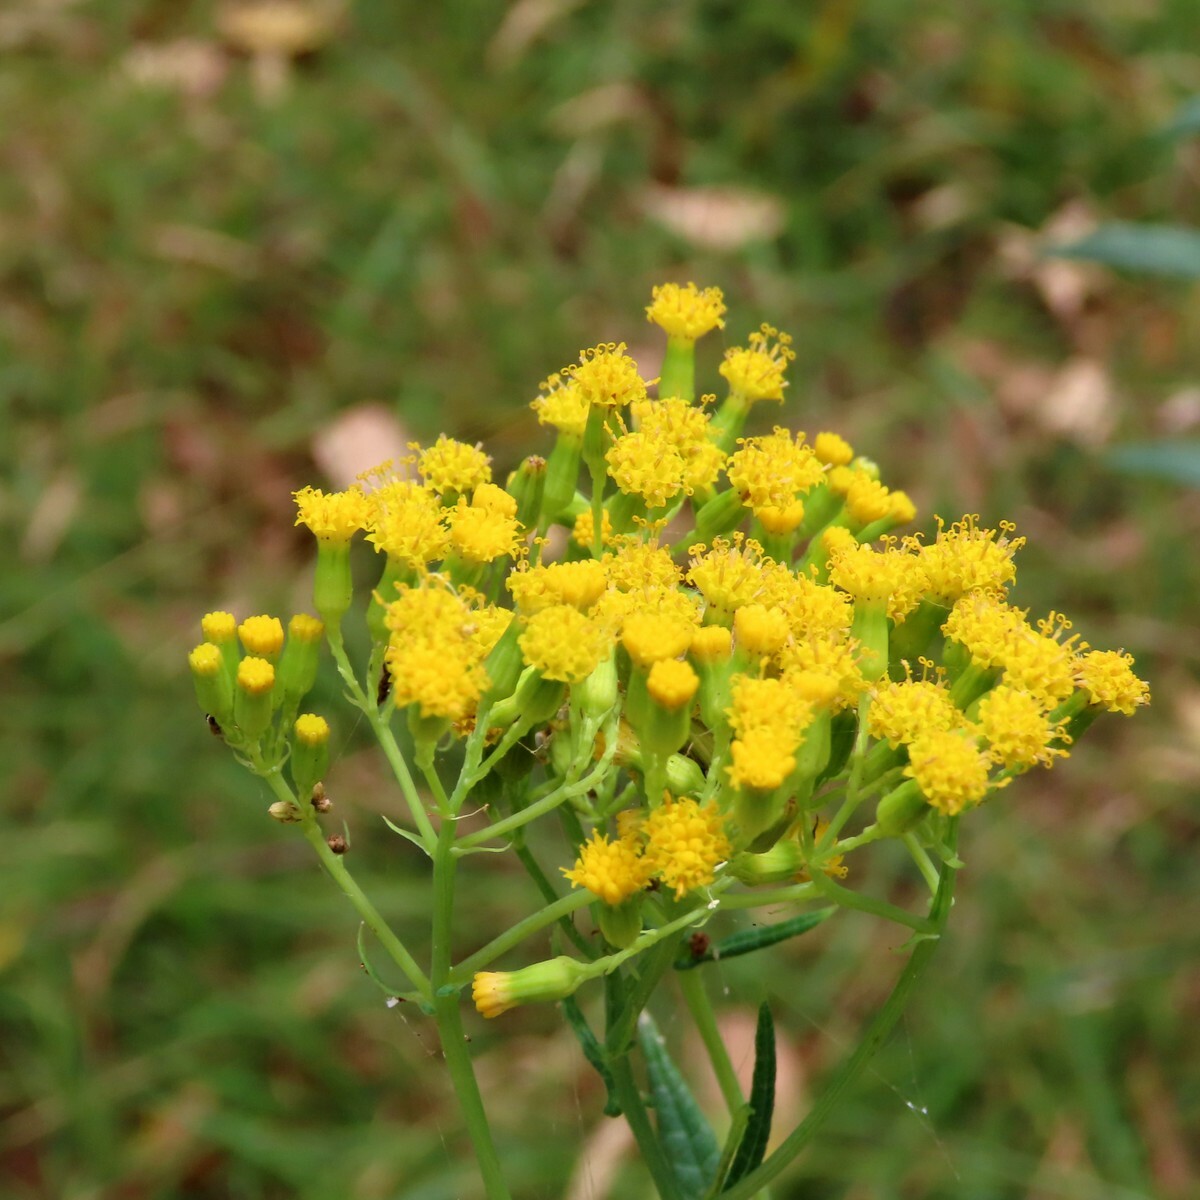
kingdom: Plantae
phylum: Tracheophyta
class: Magnoliopsida
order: Asterales
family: Asteraceae
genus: Senecio
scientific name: Senecio odoratus
